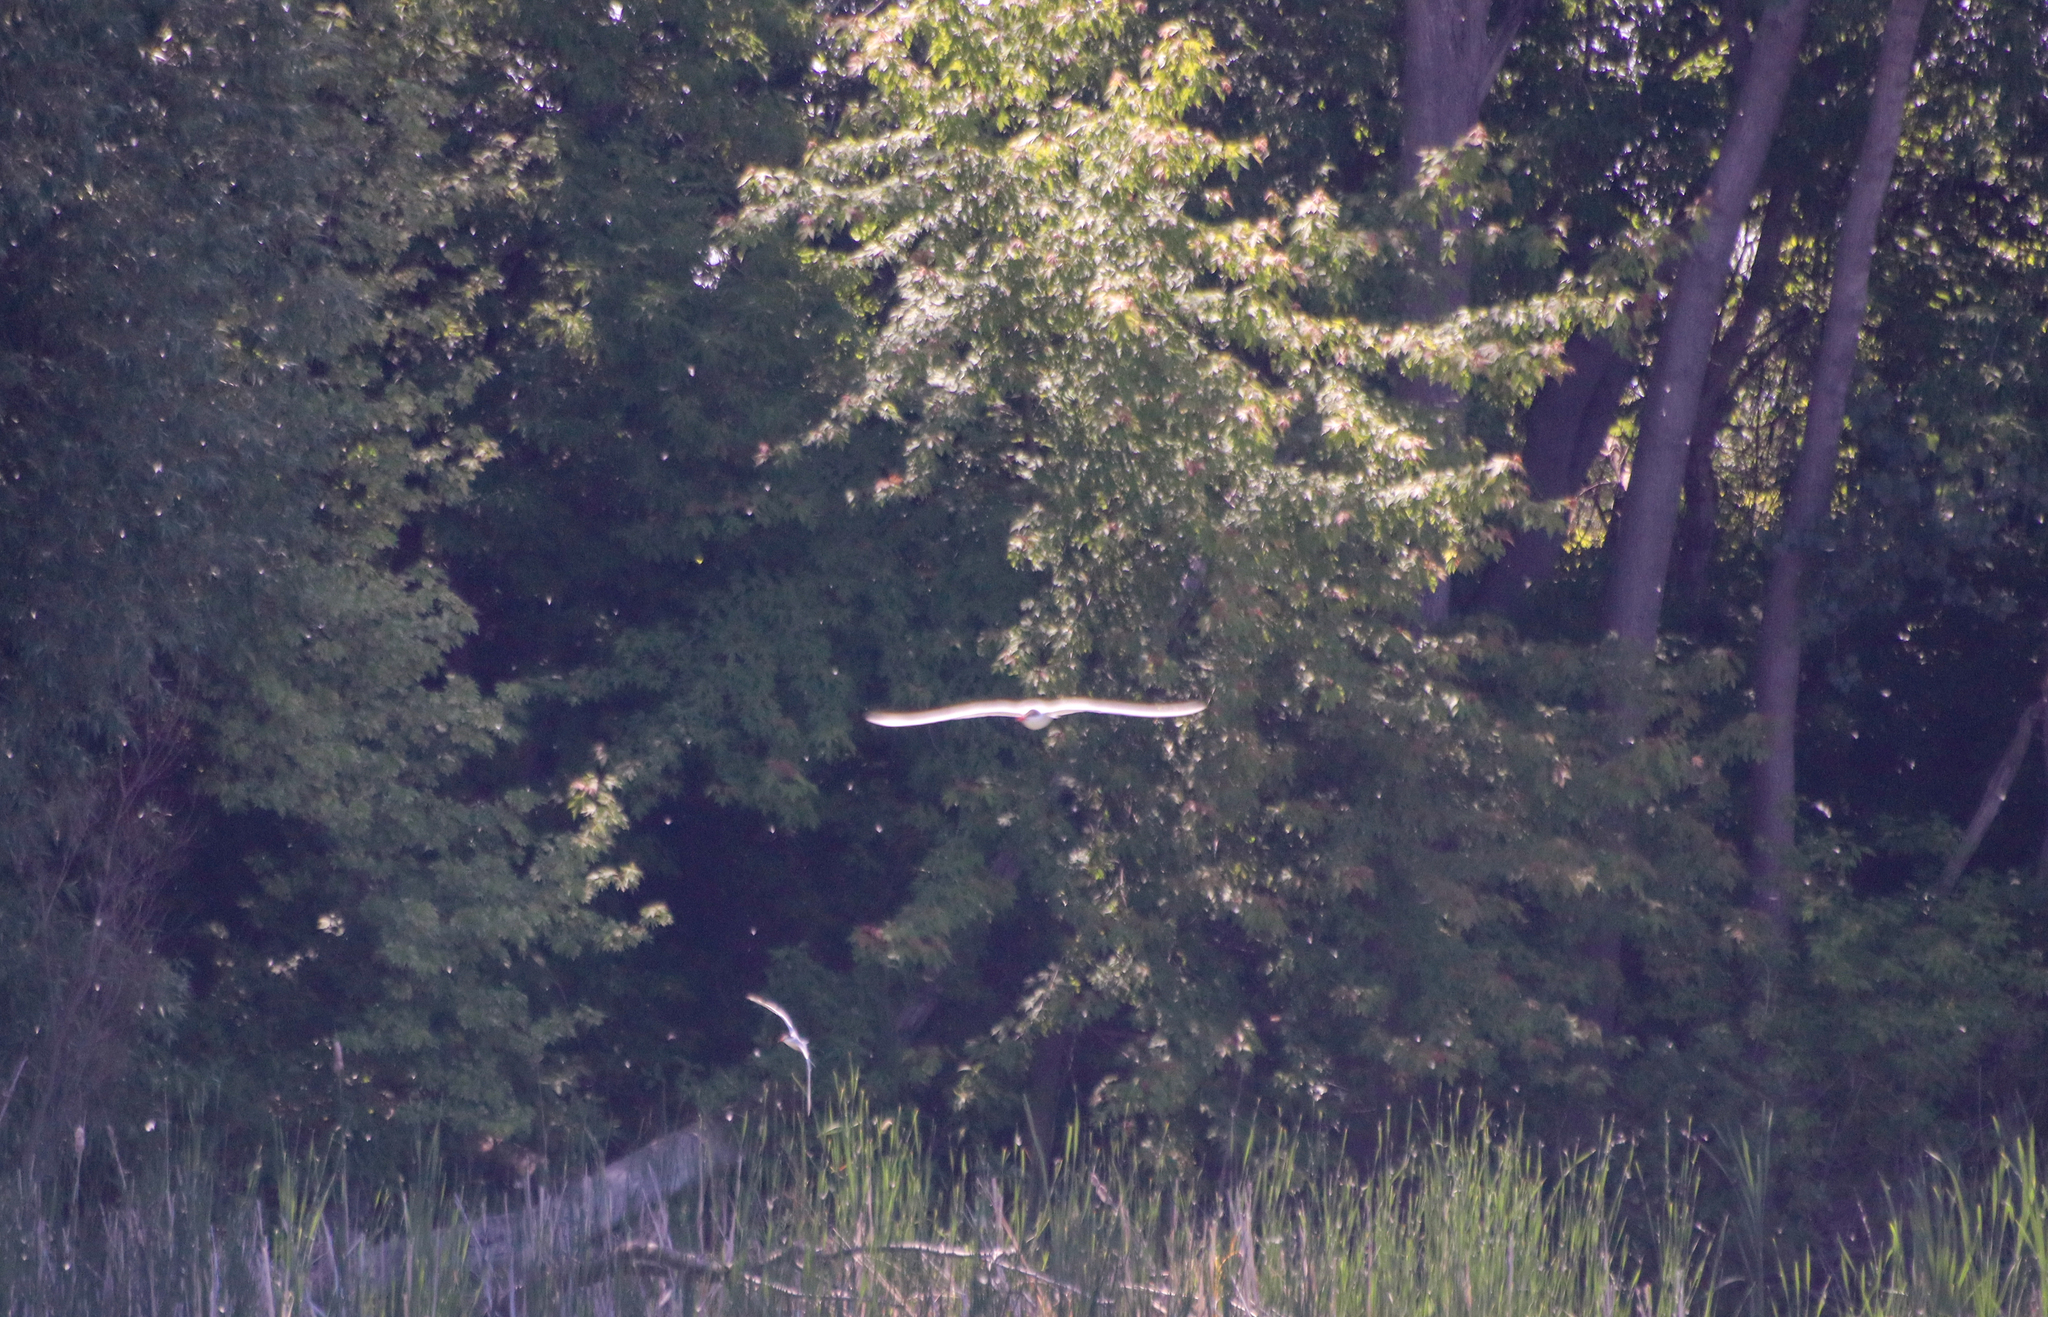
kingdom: Animalia
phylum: Chordata
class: Aves
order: Charadriiformes
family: Laridae
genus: Hydroprogne
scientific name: Hydroprogne caspia
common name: Caspian tern
